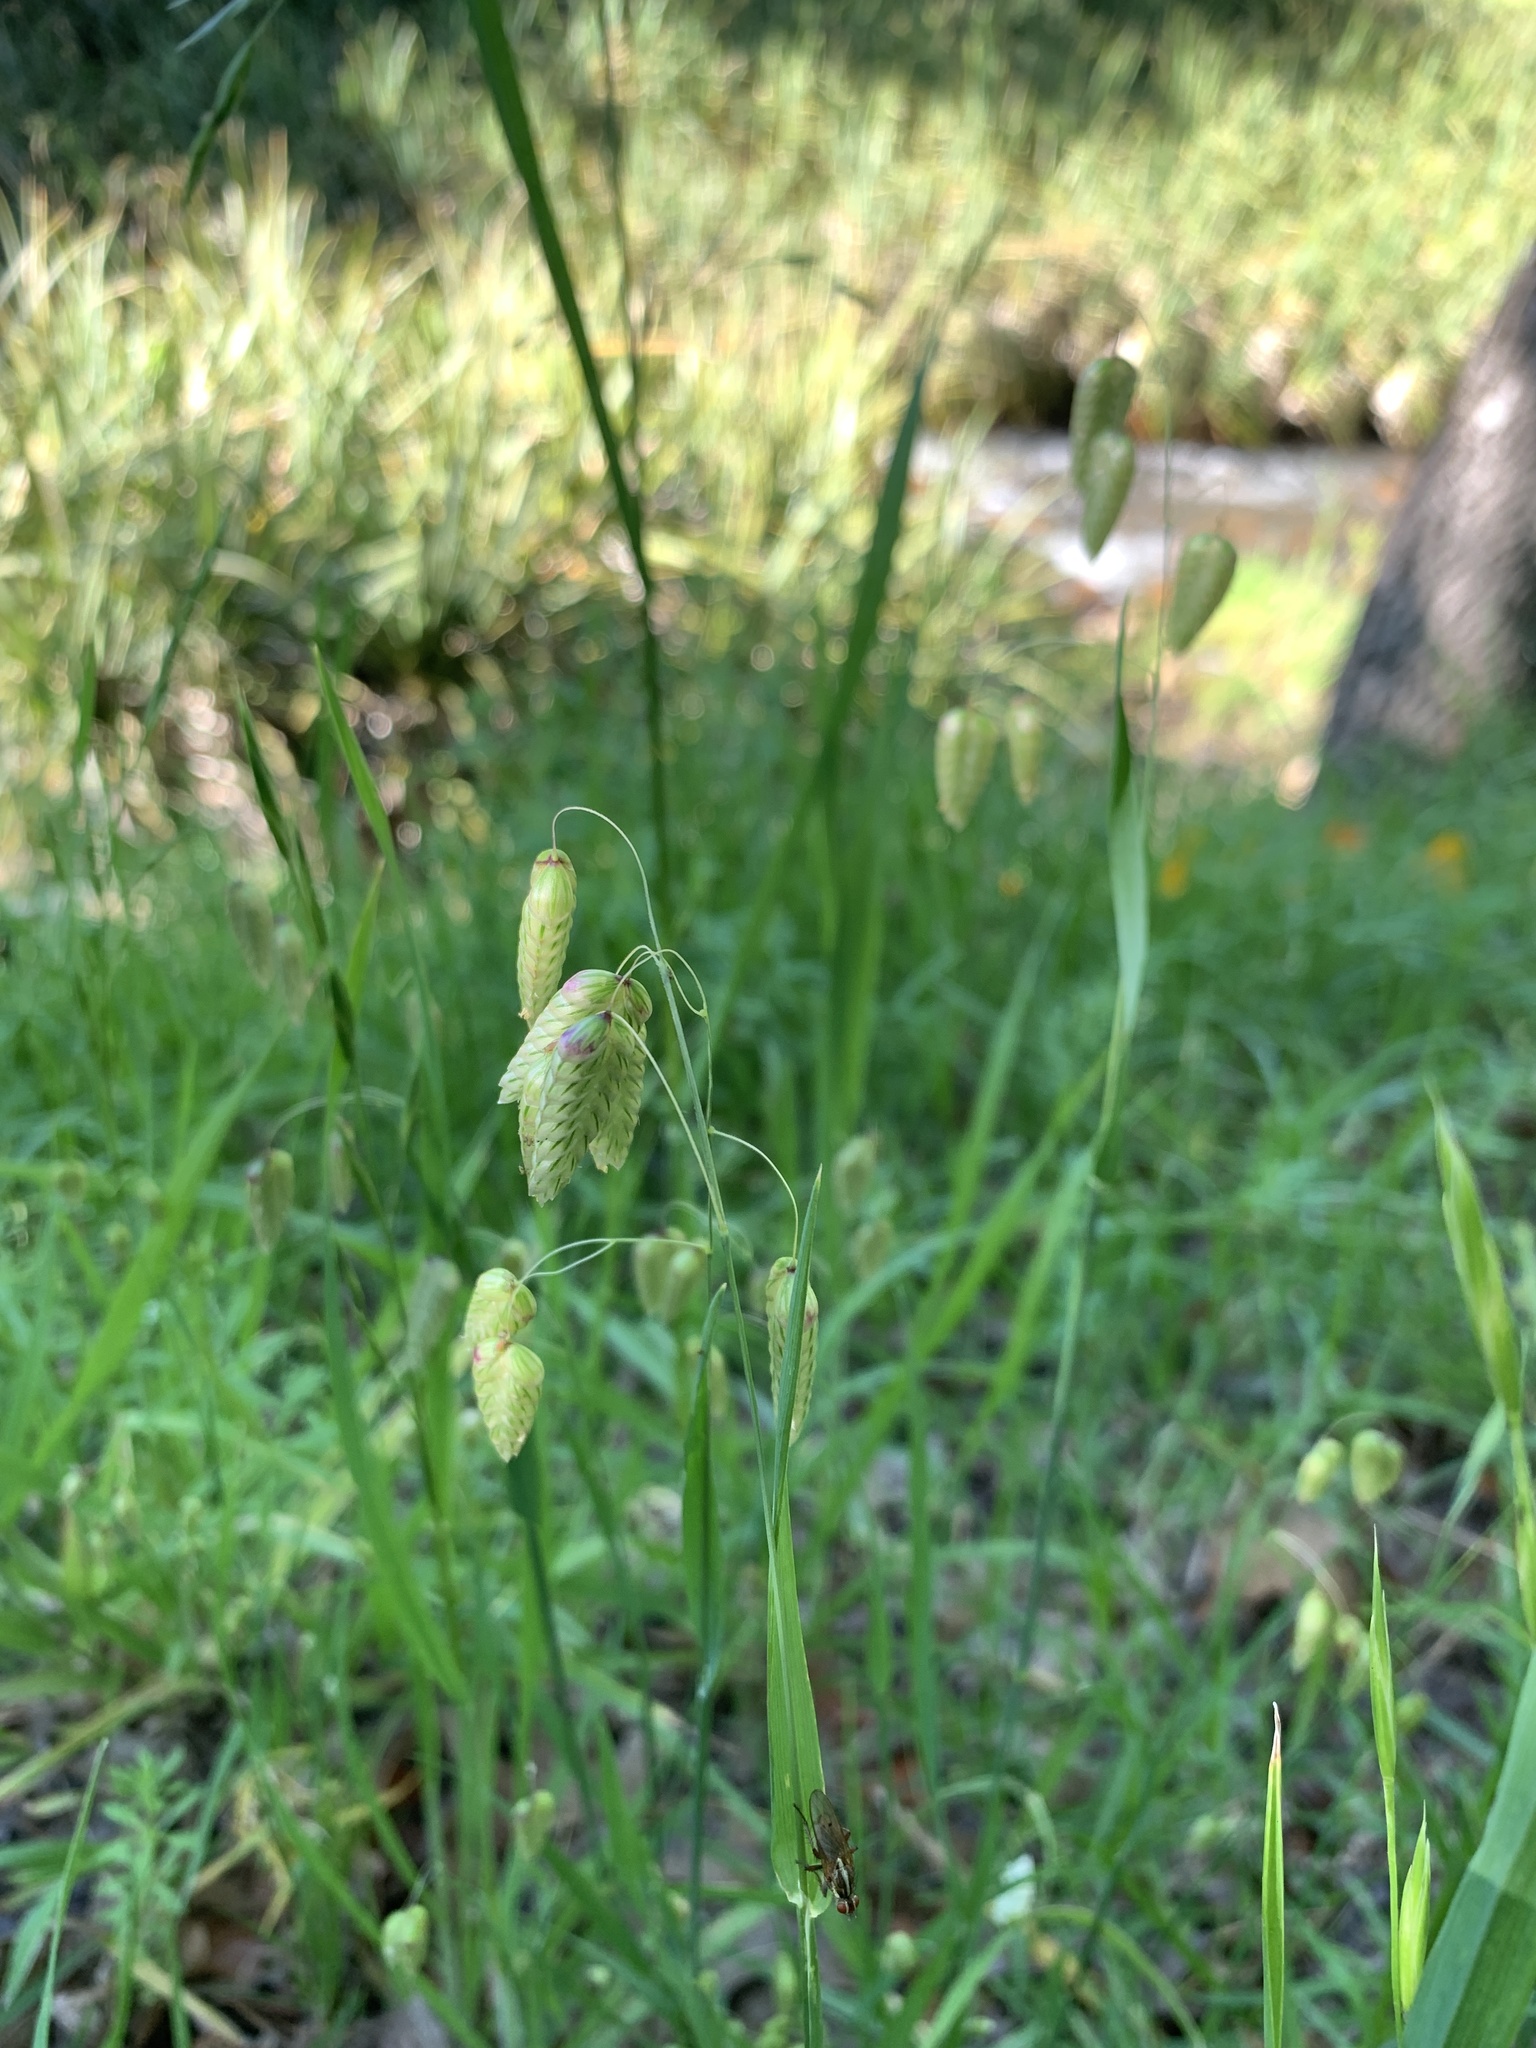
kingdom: Plantae
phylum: Tracheophyta
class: Liliopsida
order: Poales
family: Poaceae
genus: Briza
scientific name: Briza maxima
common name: Big quakinggrass
